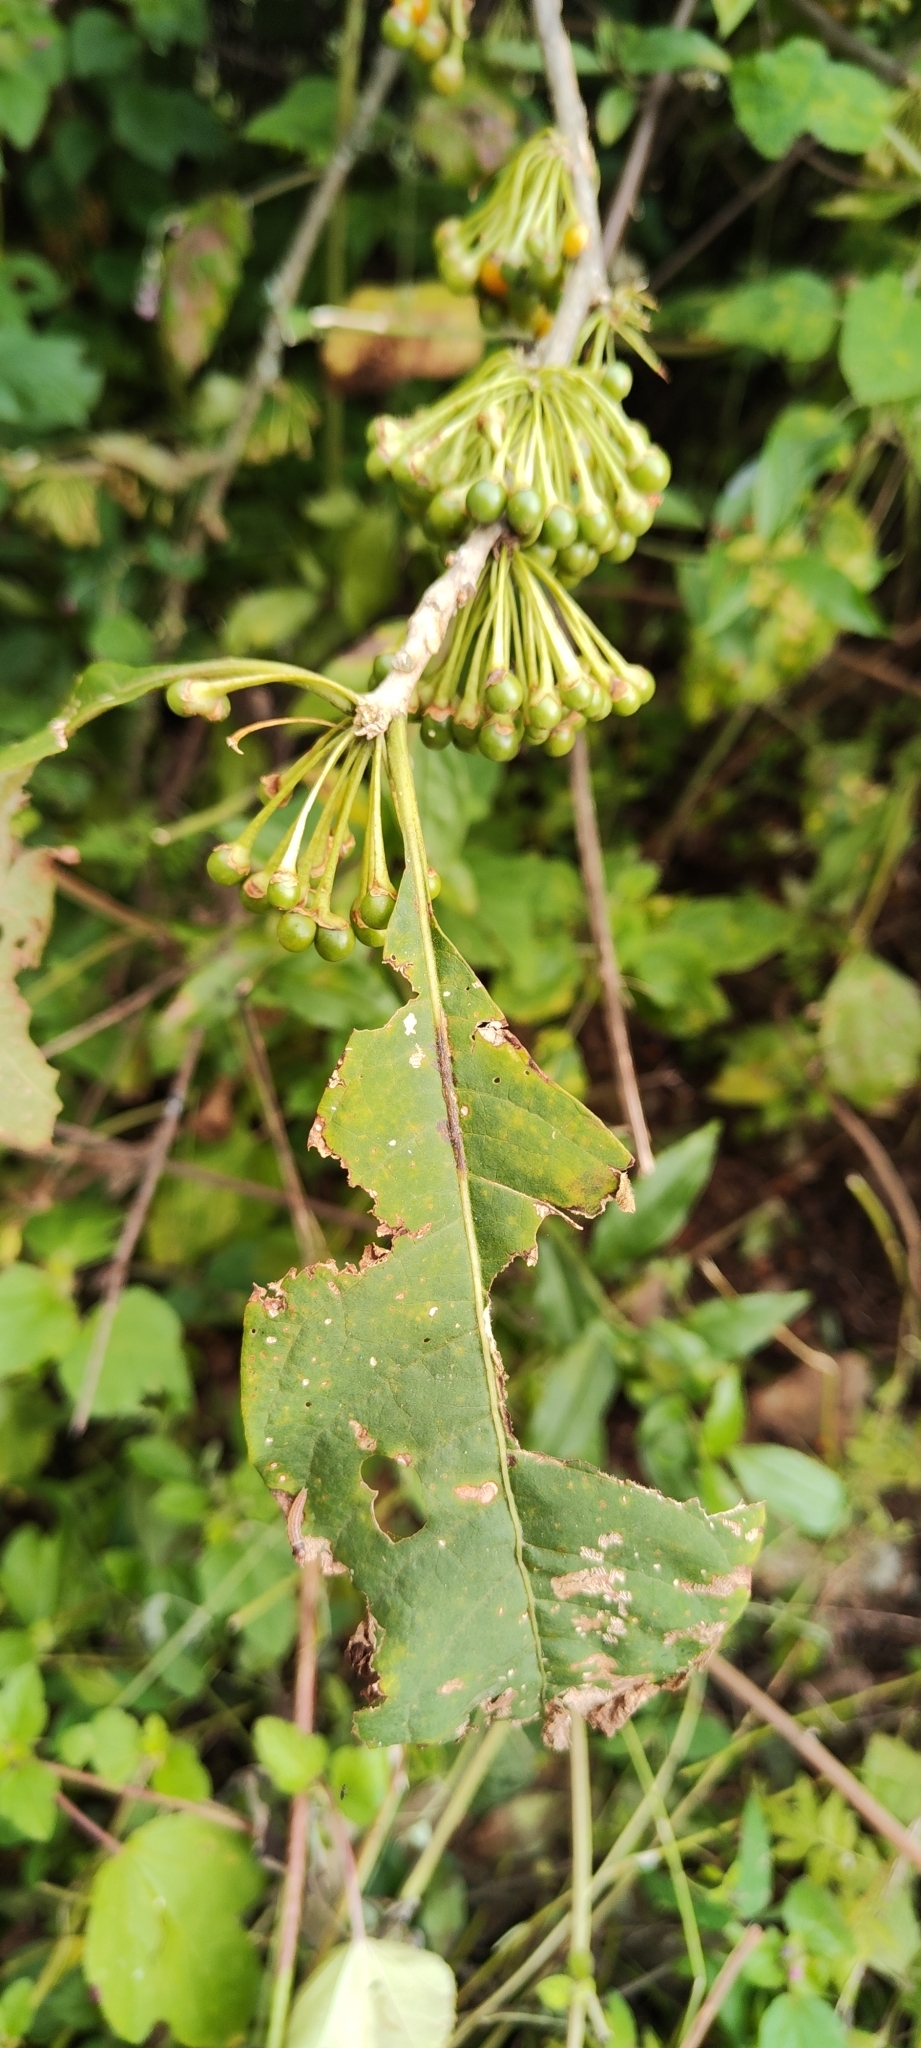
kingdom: Plantae
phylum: Tracheophyta
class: Magnoliopsida
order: Solanales
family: Solanaceae
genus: Iochroma
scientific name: Iochroma arborescens
